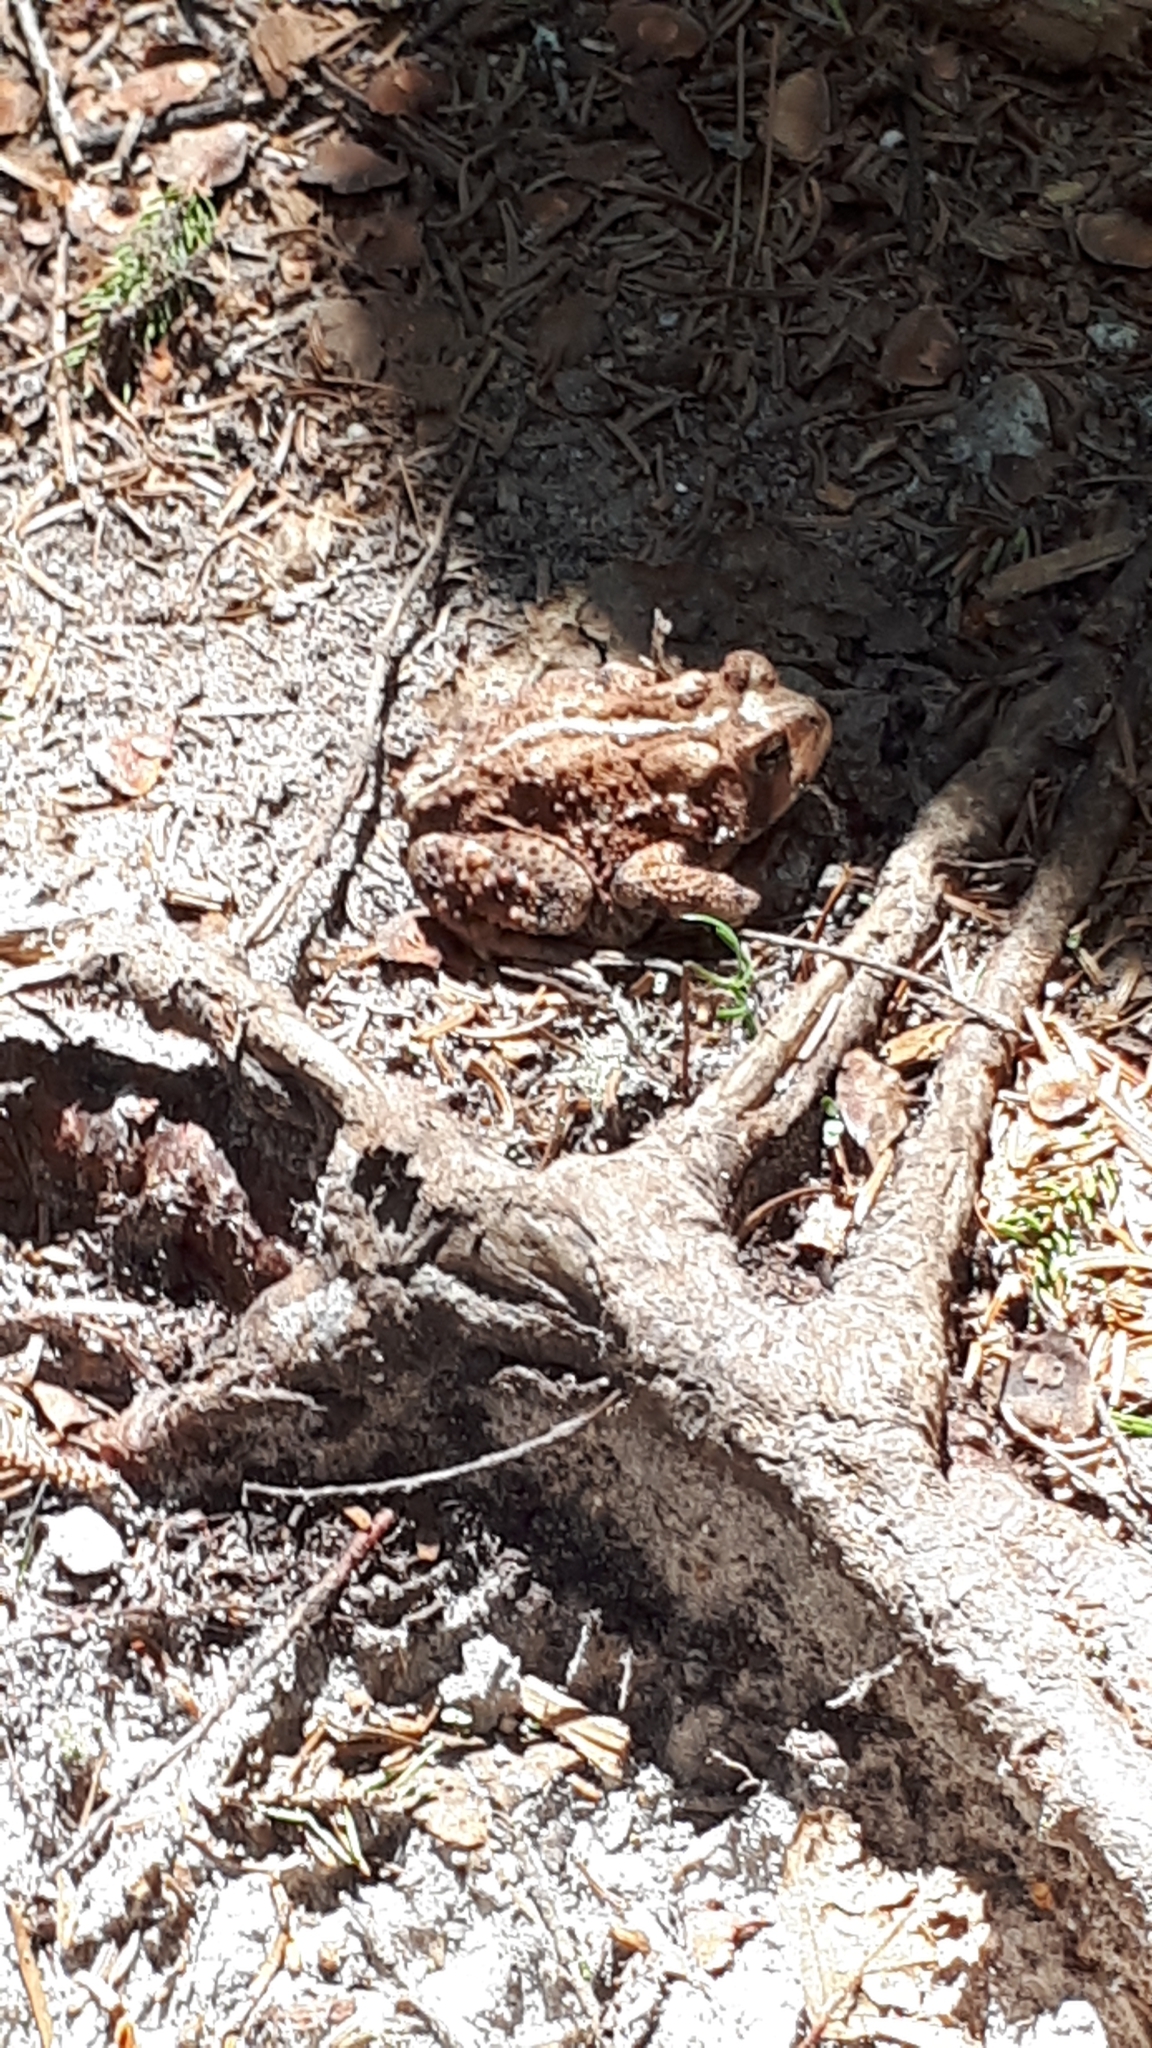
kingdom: Animalia
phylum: Chordata
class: Amphibia
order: Anura
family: Bufonidae
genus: Anaxyrus
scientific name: Anaxyrus americanus
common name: American toad
